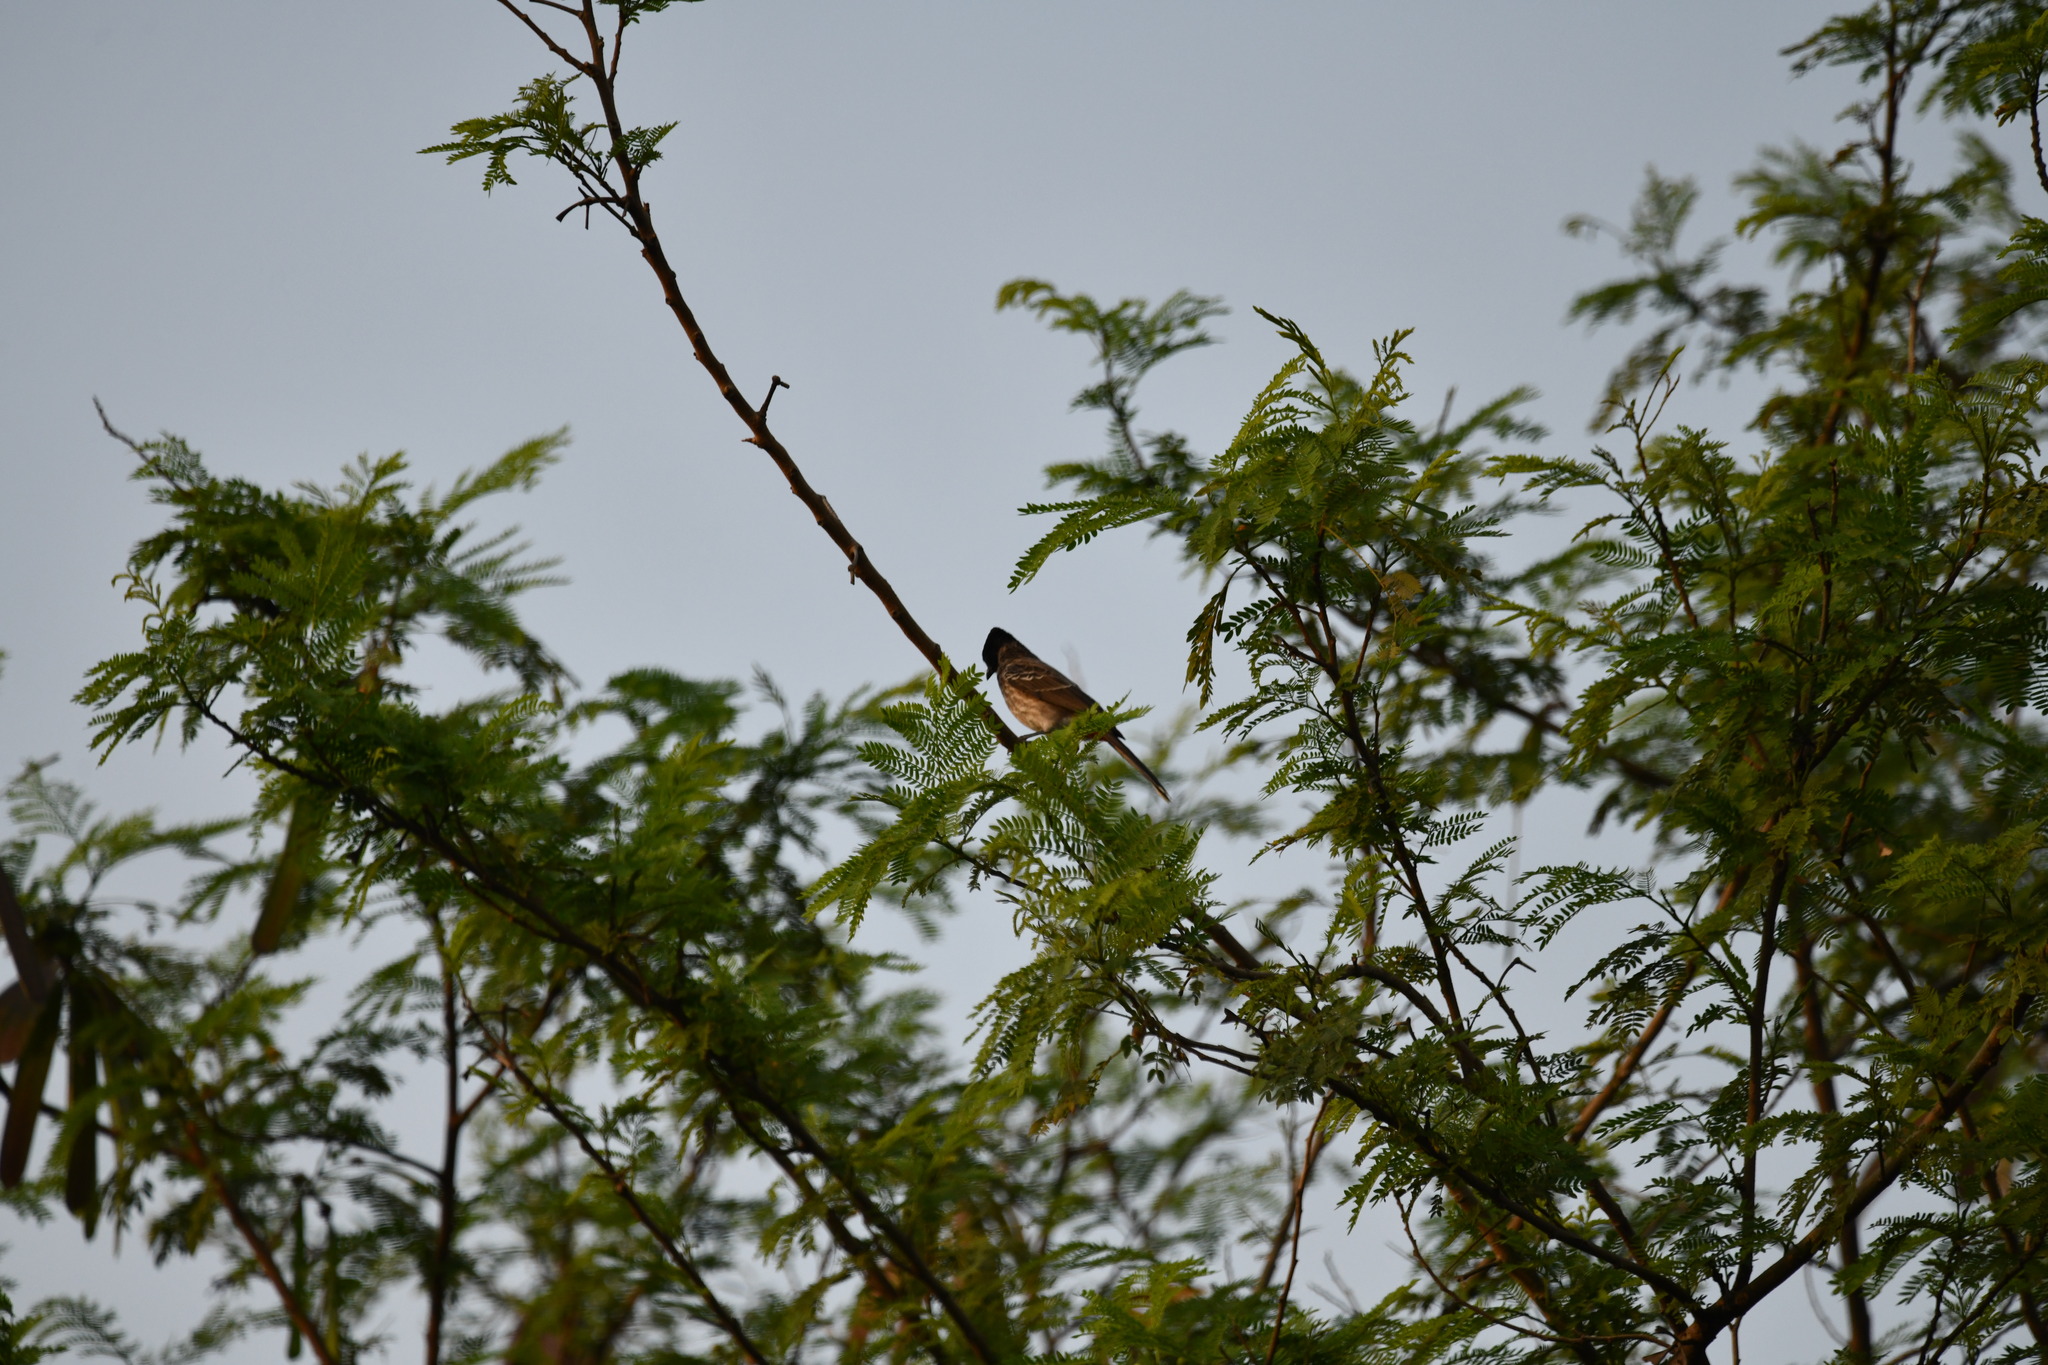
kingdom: Animalia
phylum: Chordata
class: Aves
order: Passeriformes
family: Pycnonotidae
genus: Pycnonotus
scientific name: Pycnonotus cafer
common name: Red-vented bulbul
